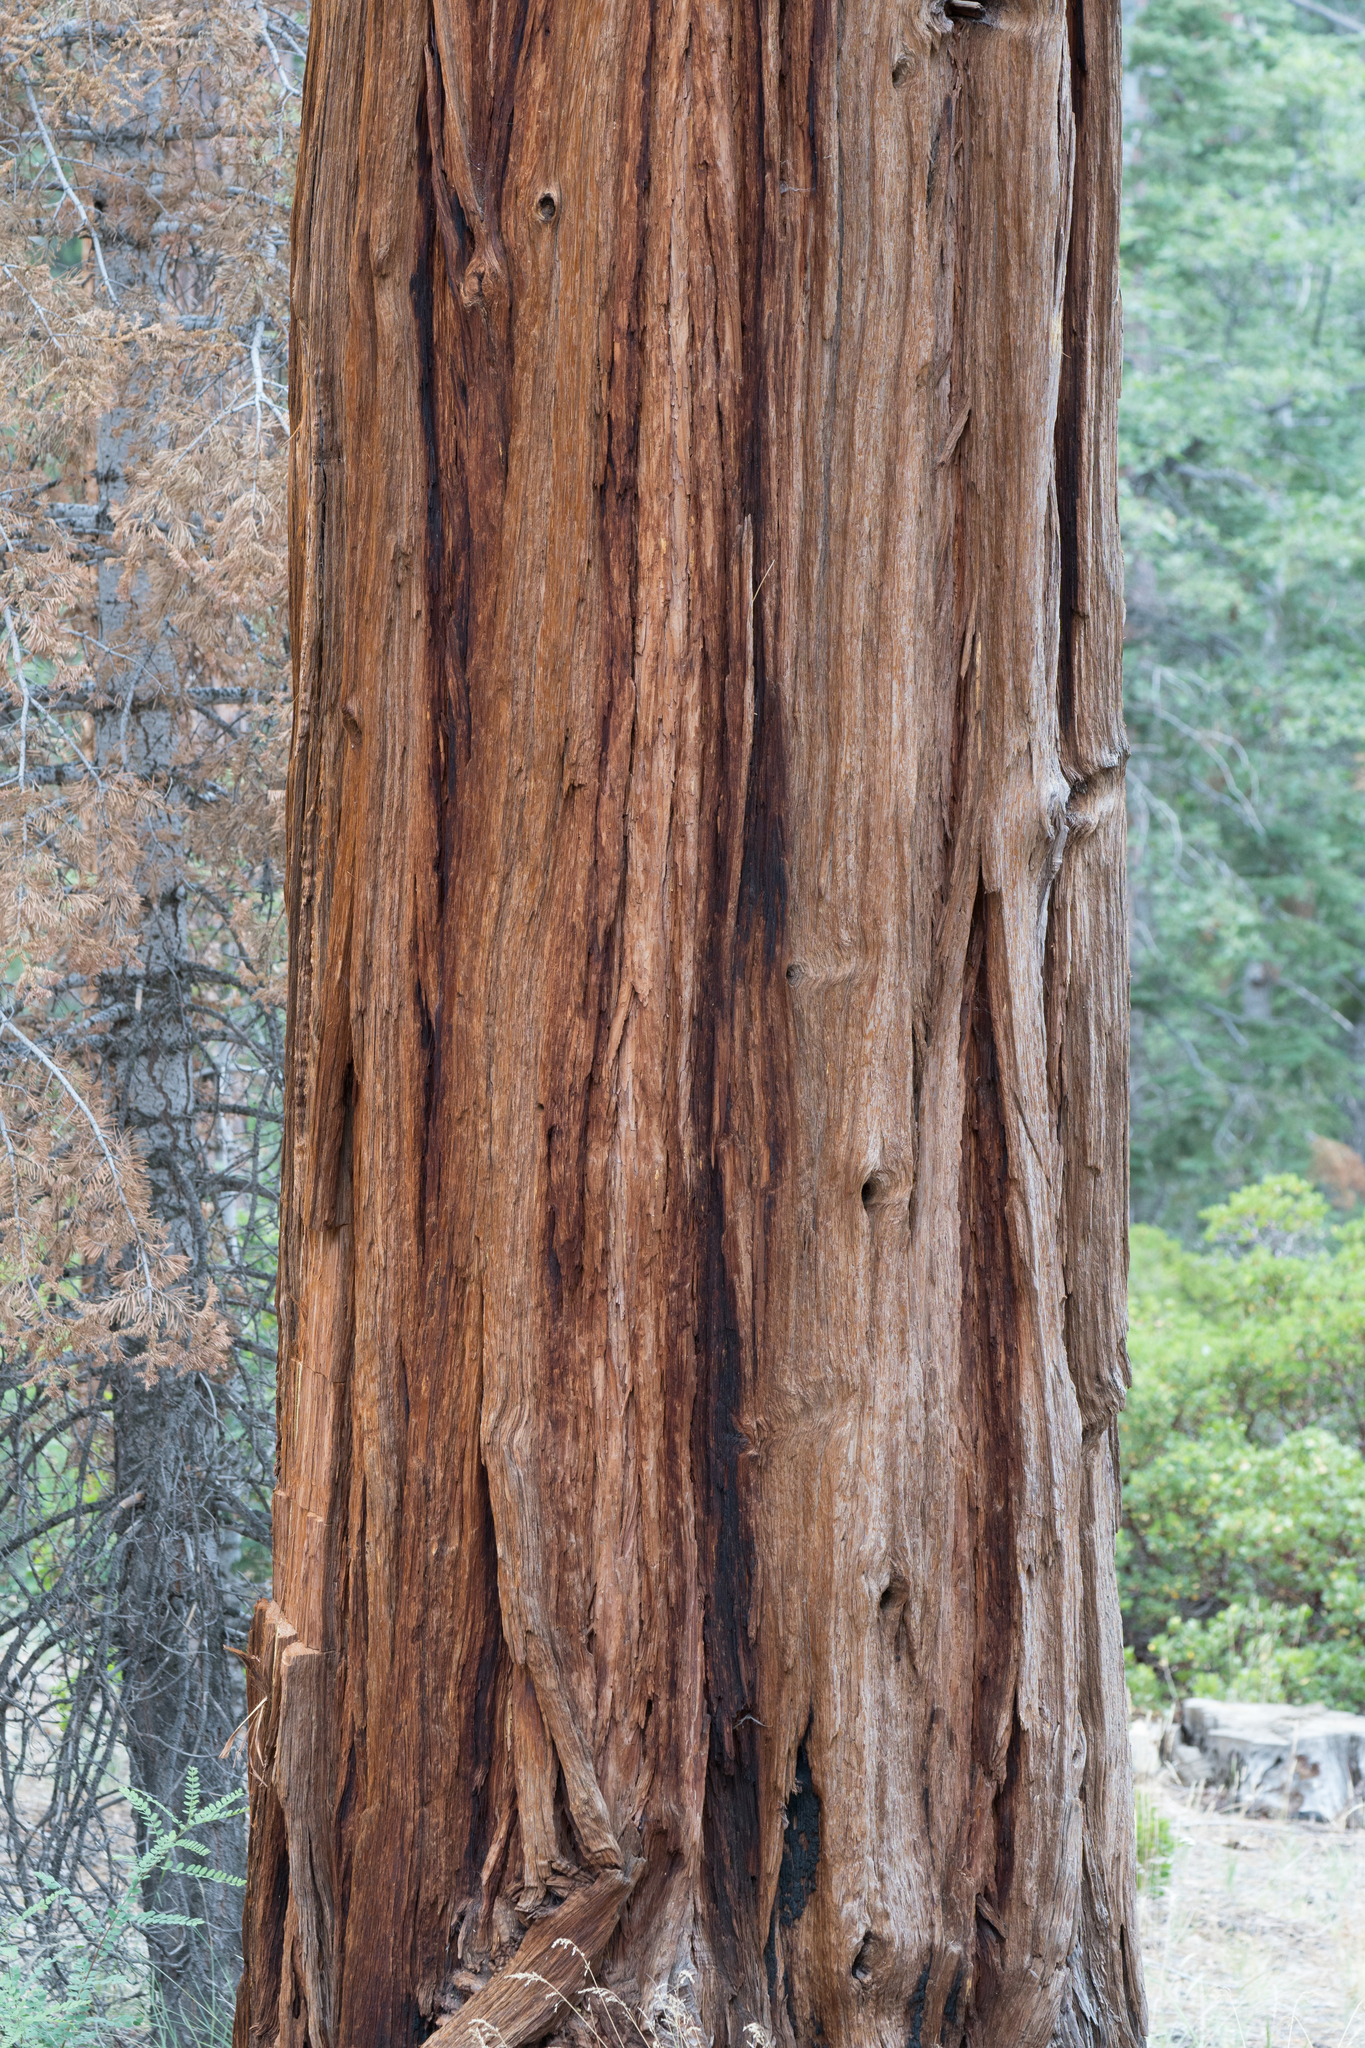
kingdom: Plantae
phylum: Tracheophyta
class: Pinopsida
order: Pinales
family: Cupressaceae
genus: Calocedrus
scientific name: Calocedrus decurrens
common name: Californian incense-cedar
